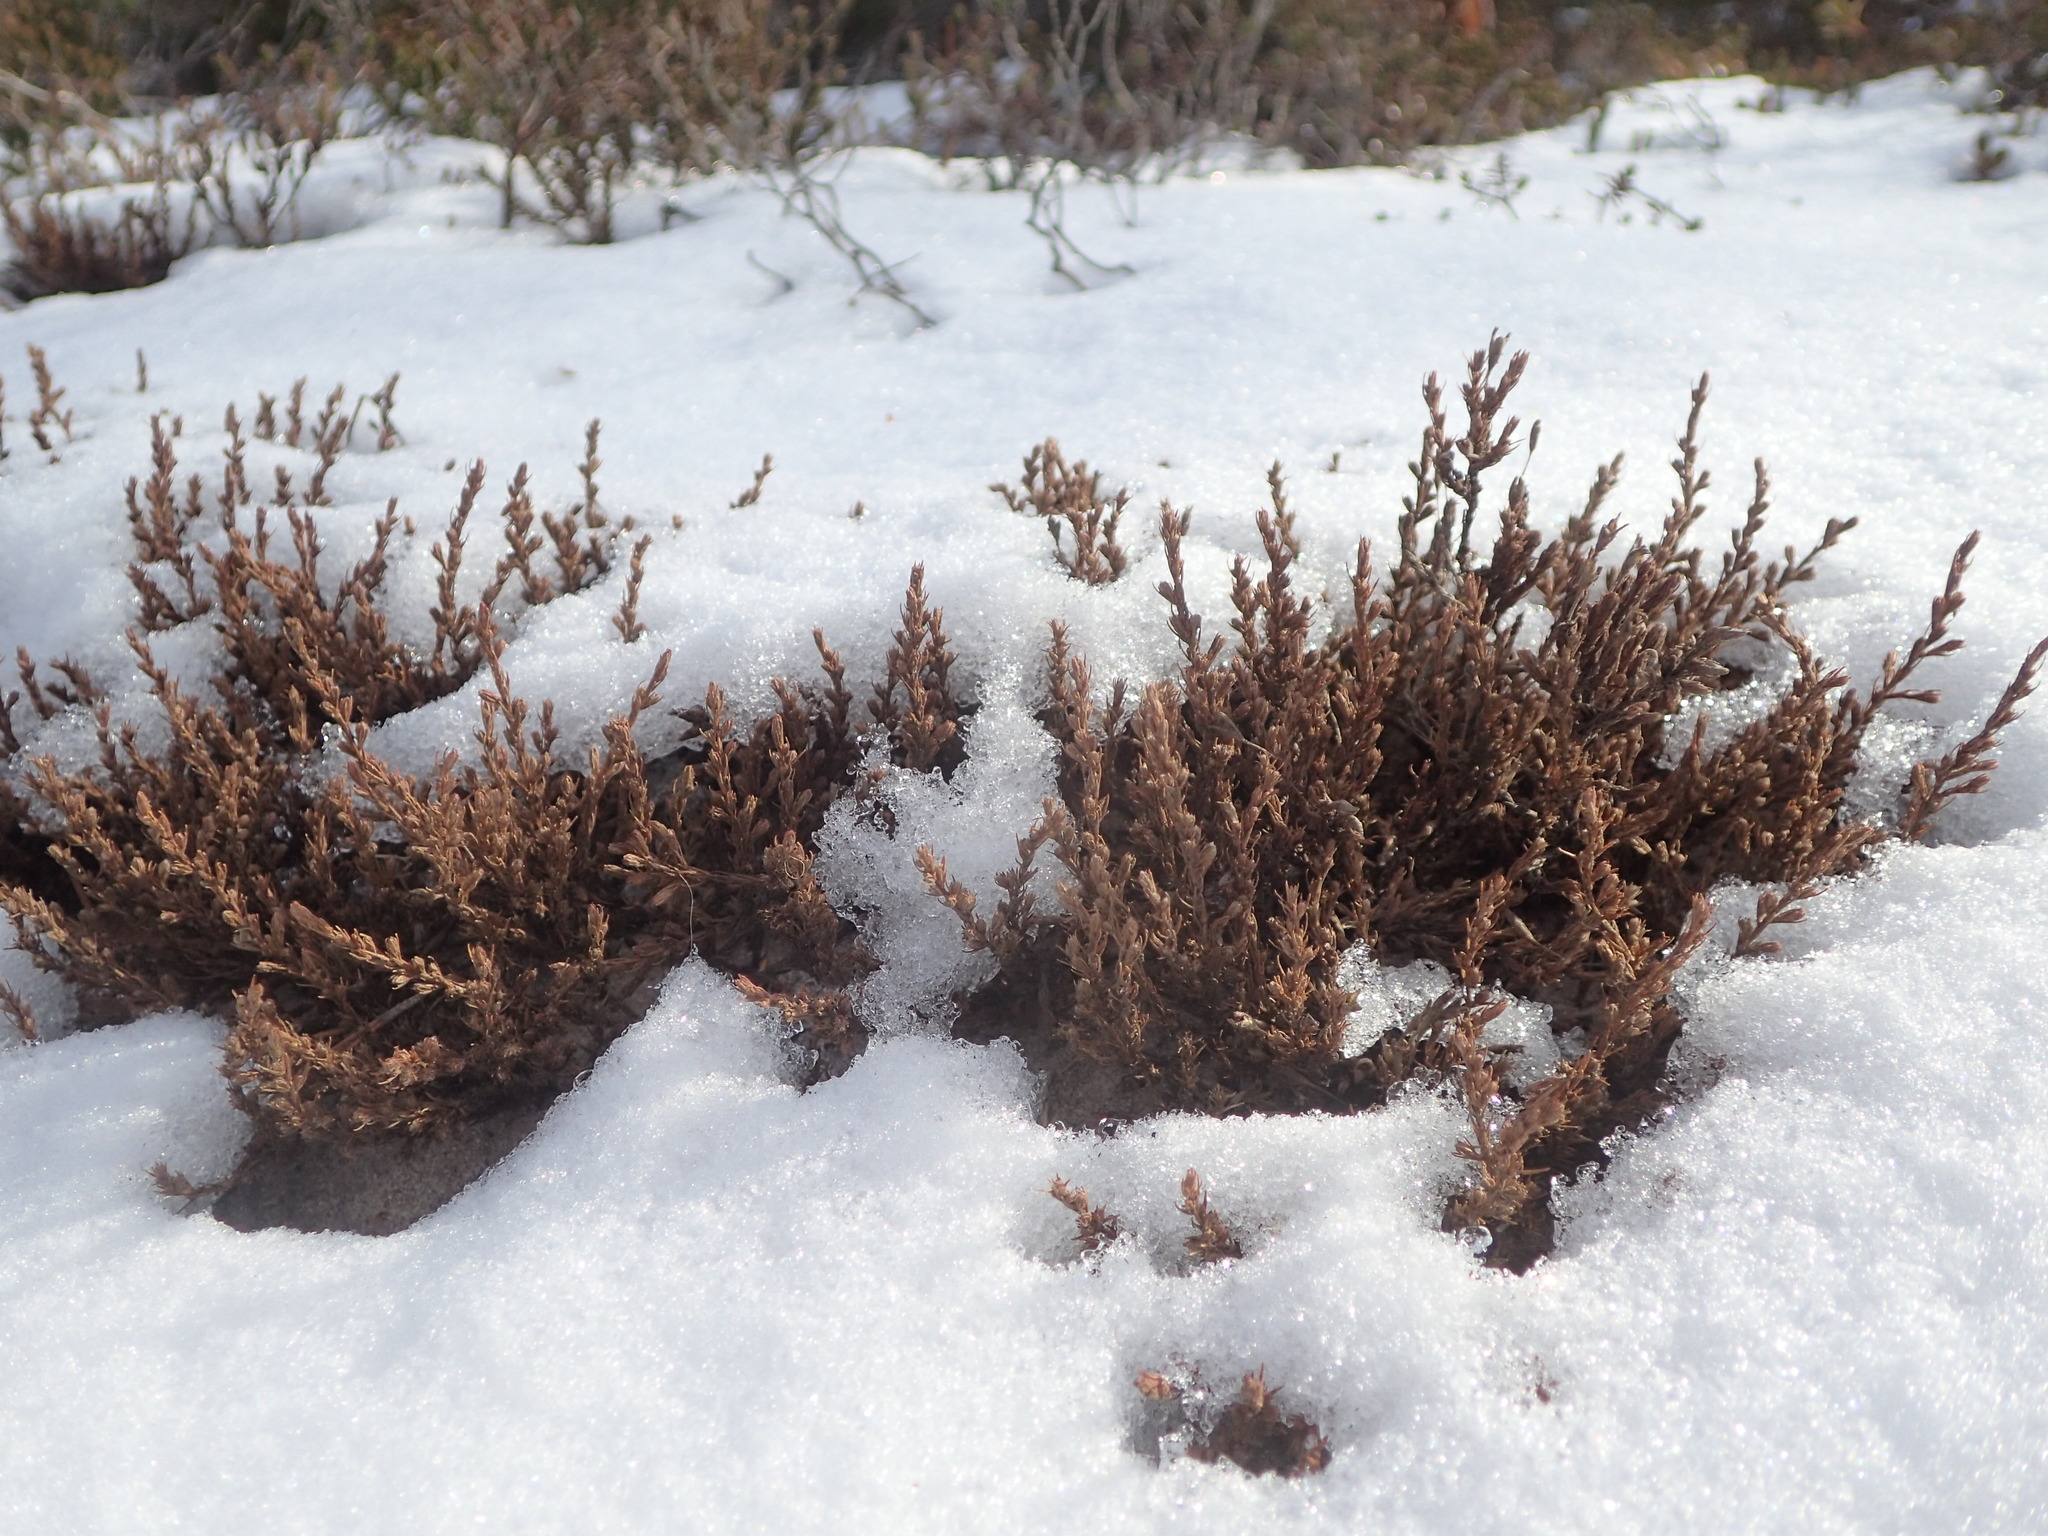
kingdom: Plantae
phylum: Tracheophyta
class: Magnoliopsida
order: Malvales
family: Cistaceae
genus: Hudsonia
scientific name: Hudsonia ericoides
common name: Golden-heather
